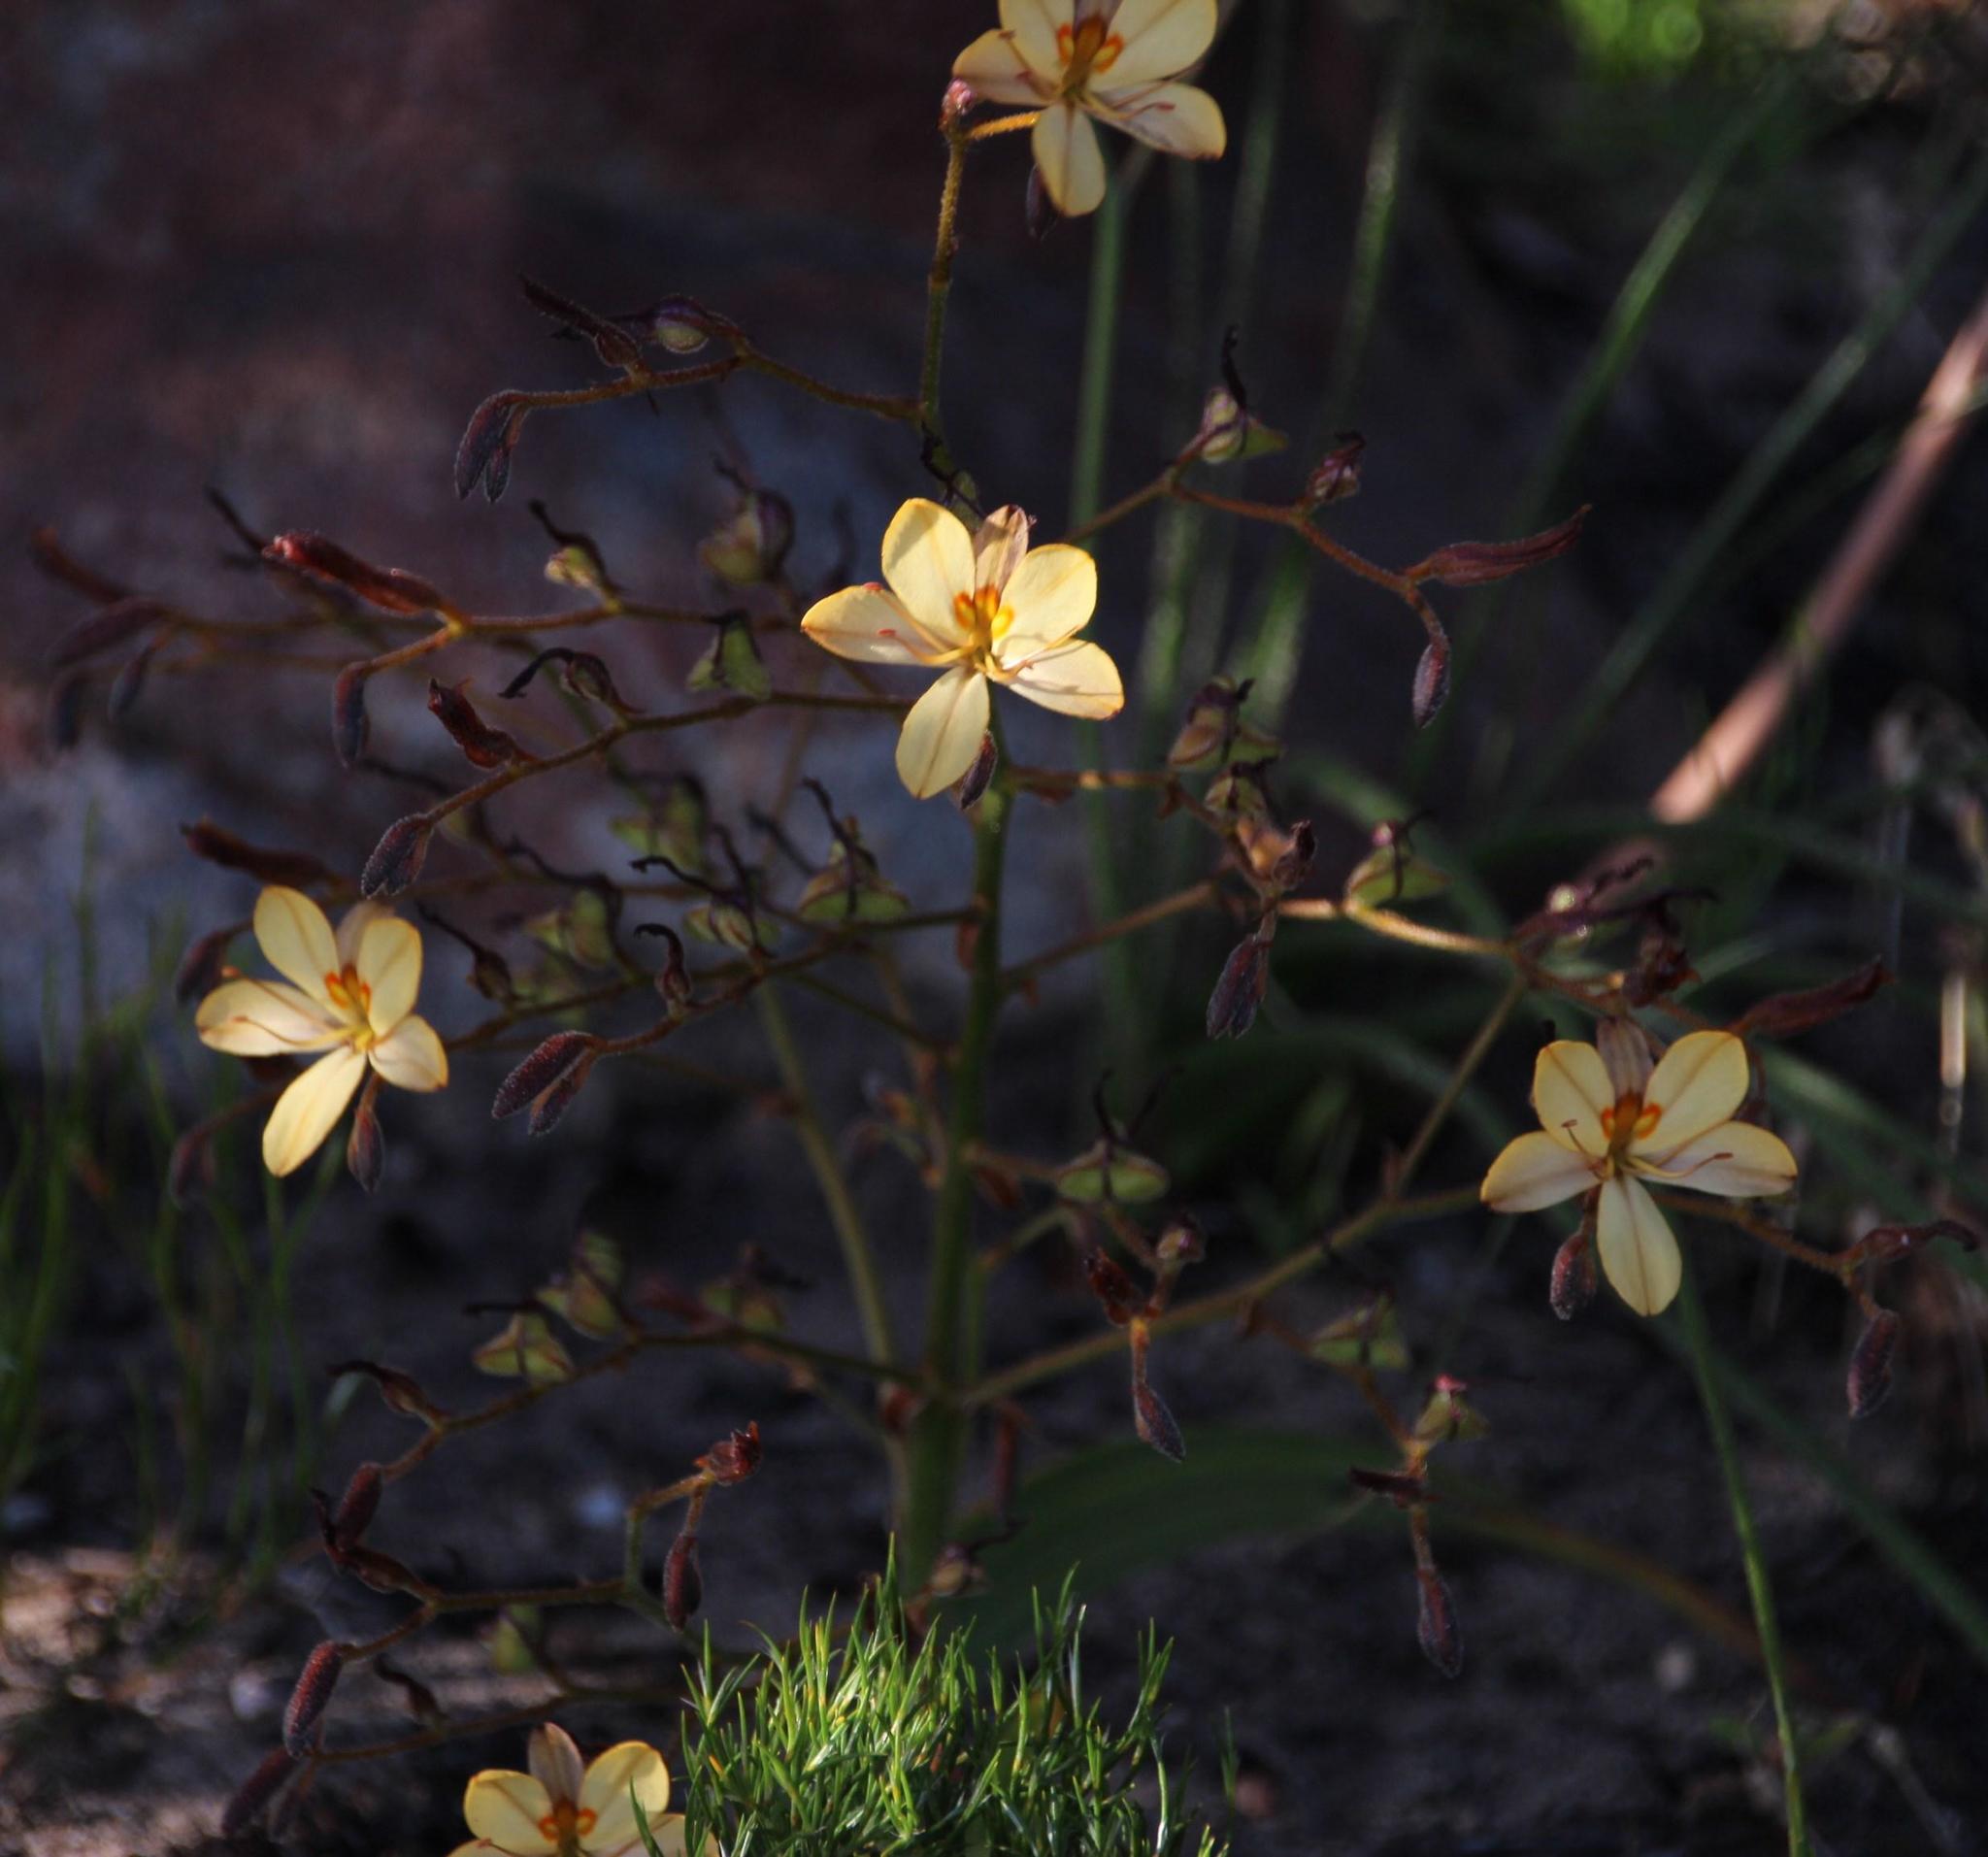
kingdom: Plantae
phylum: Tracheophyta
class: Liliopsida
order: Commelinales
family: Haemodoraceae
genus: Wachendorfia
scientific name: Wachendorfia paniculata
